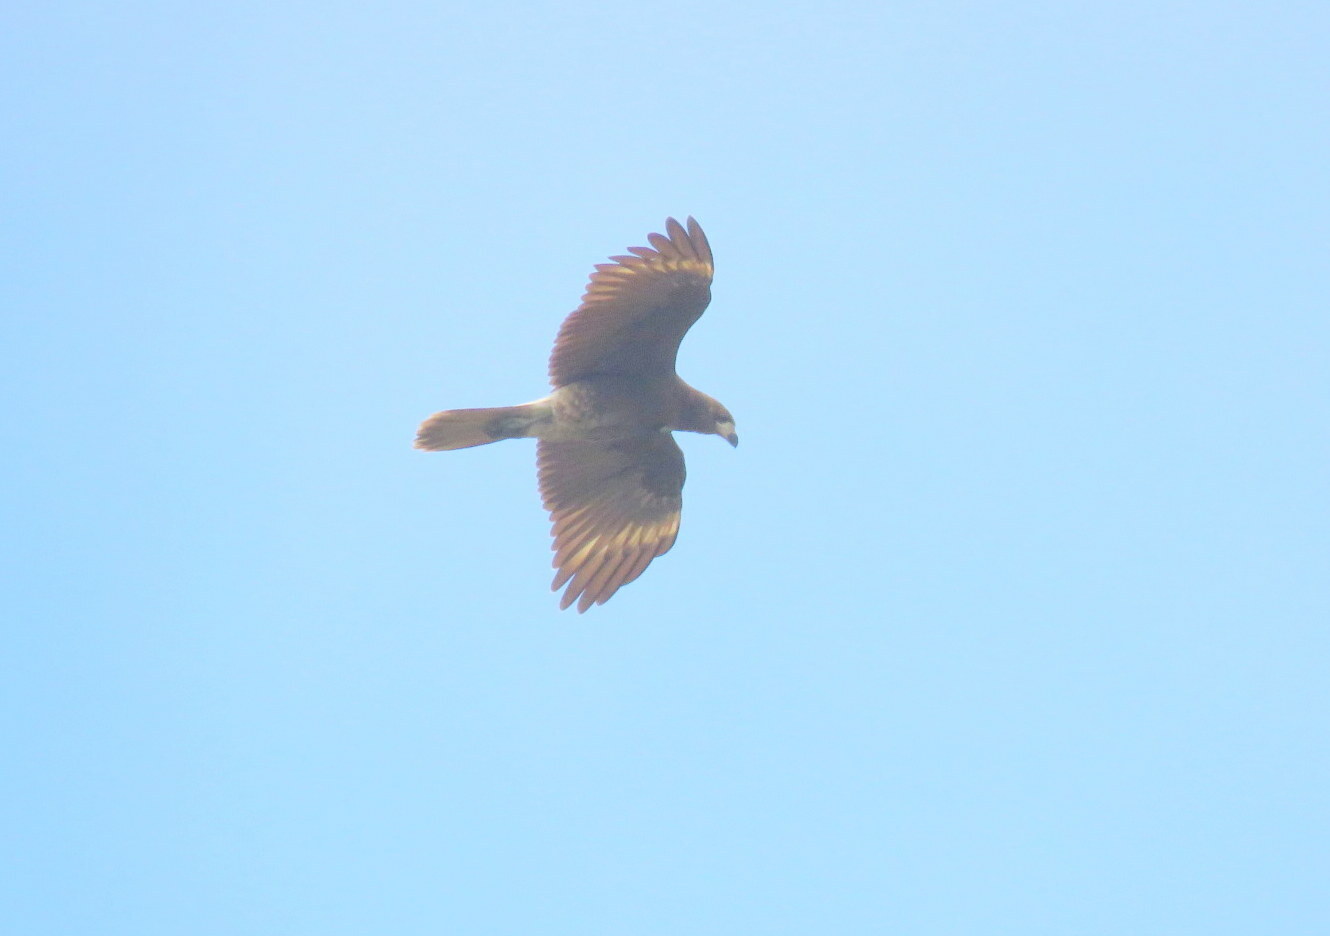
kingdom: Animalia
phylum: Chordata
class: Aves
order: Falconiformes
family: Falconidae
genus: Daptrius
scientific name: Daptrius
